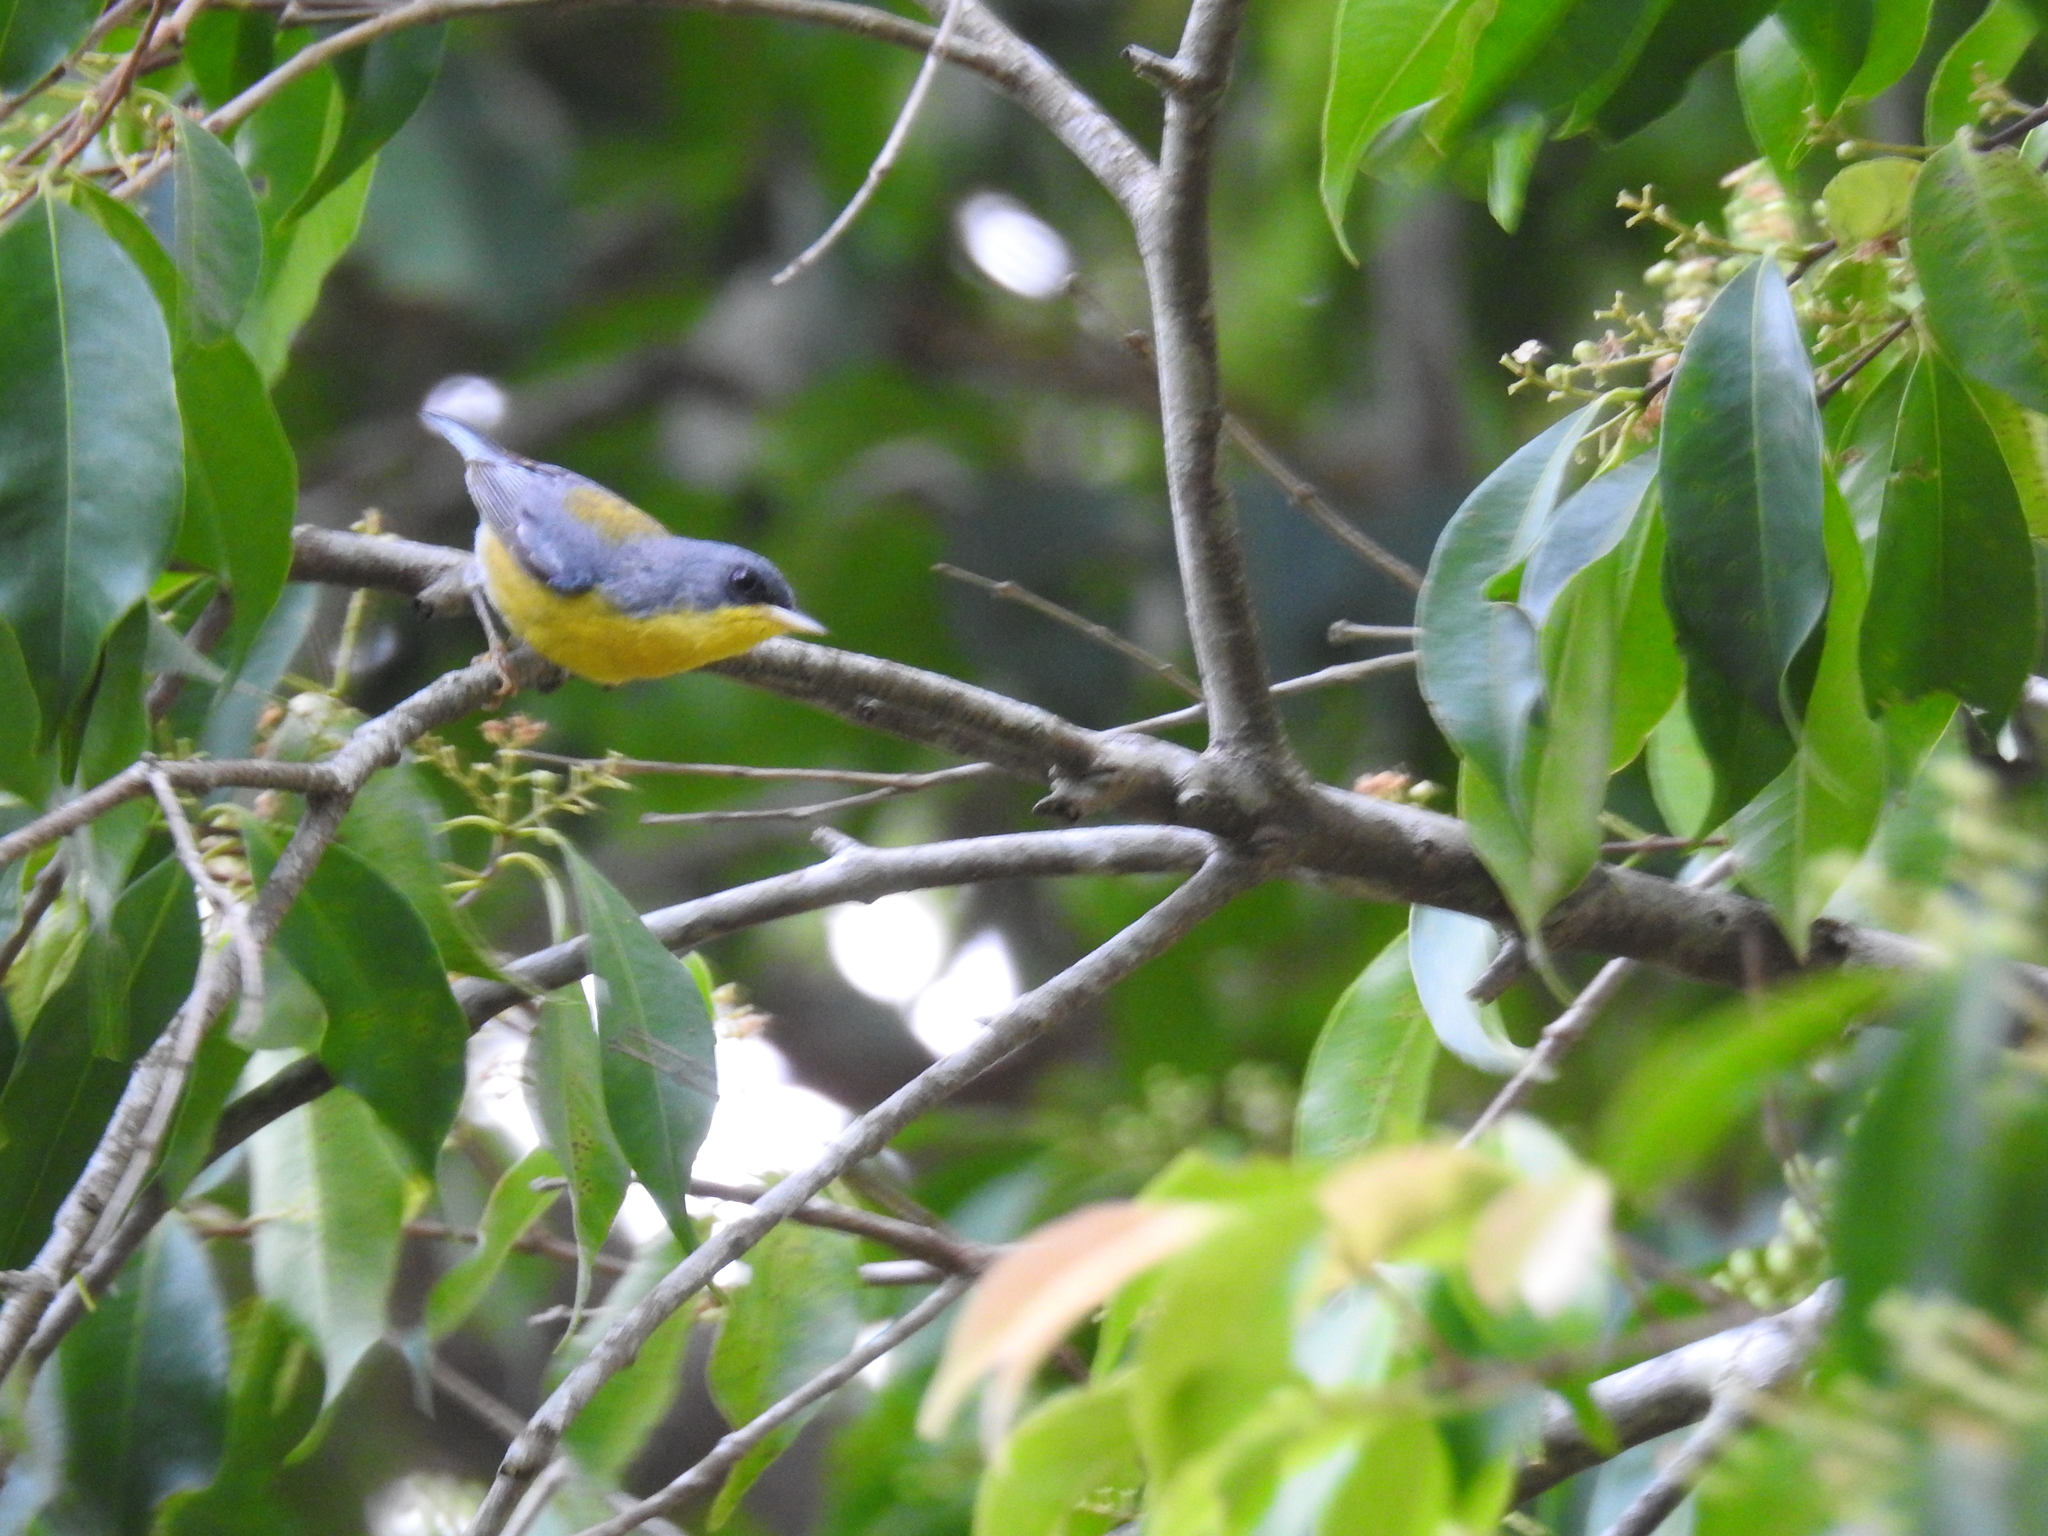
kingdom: Animalia
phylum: Chordata
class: Aves
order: Passeriformes
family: Parulidae
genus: Setophaga
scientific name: Setophaga pitiayumi
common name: Tropical parula
